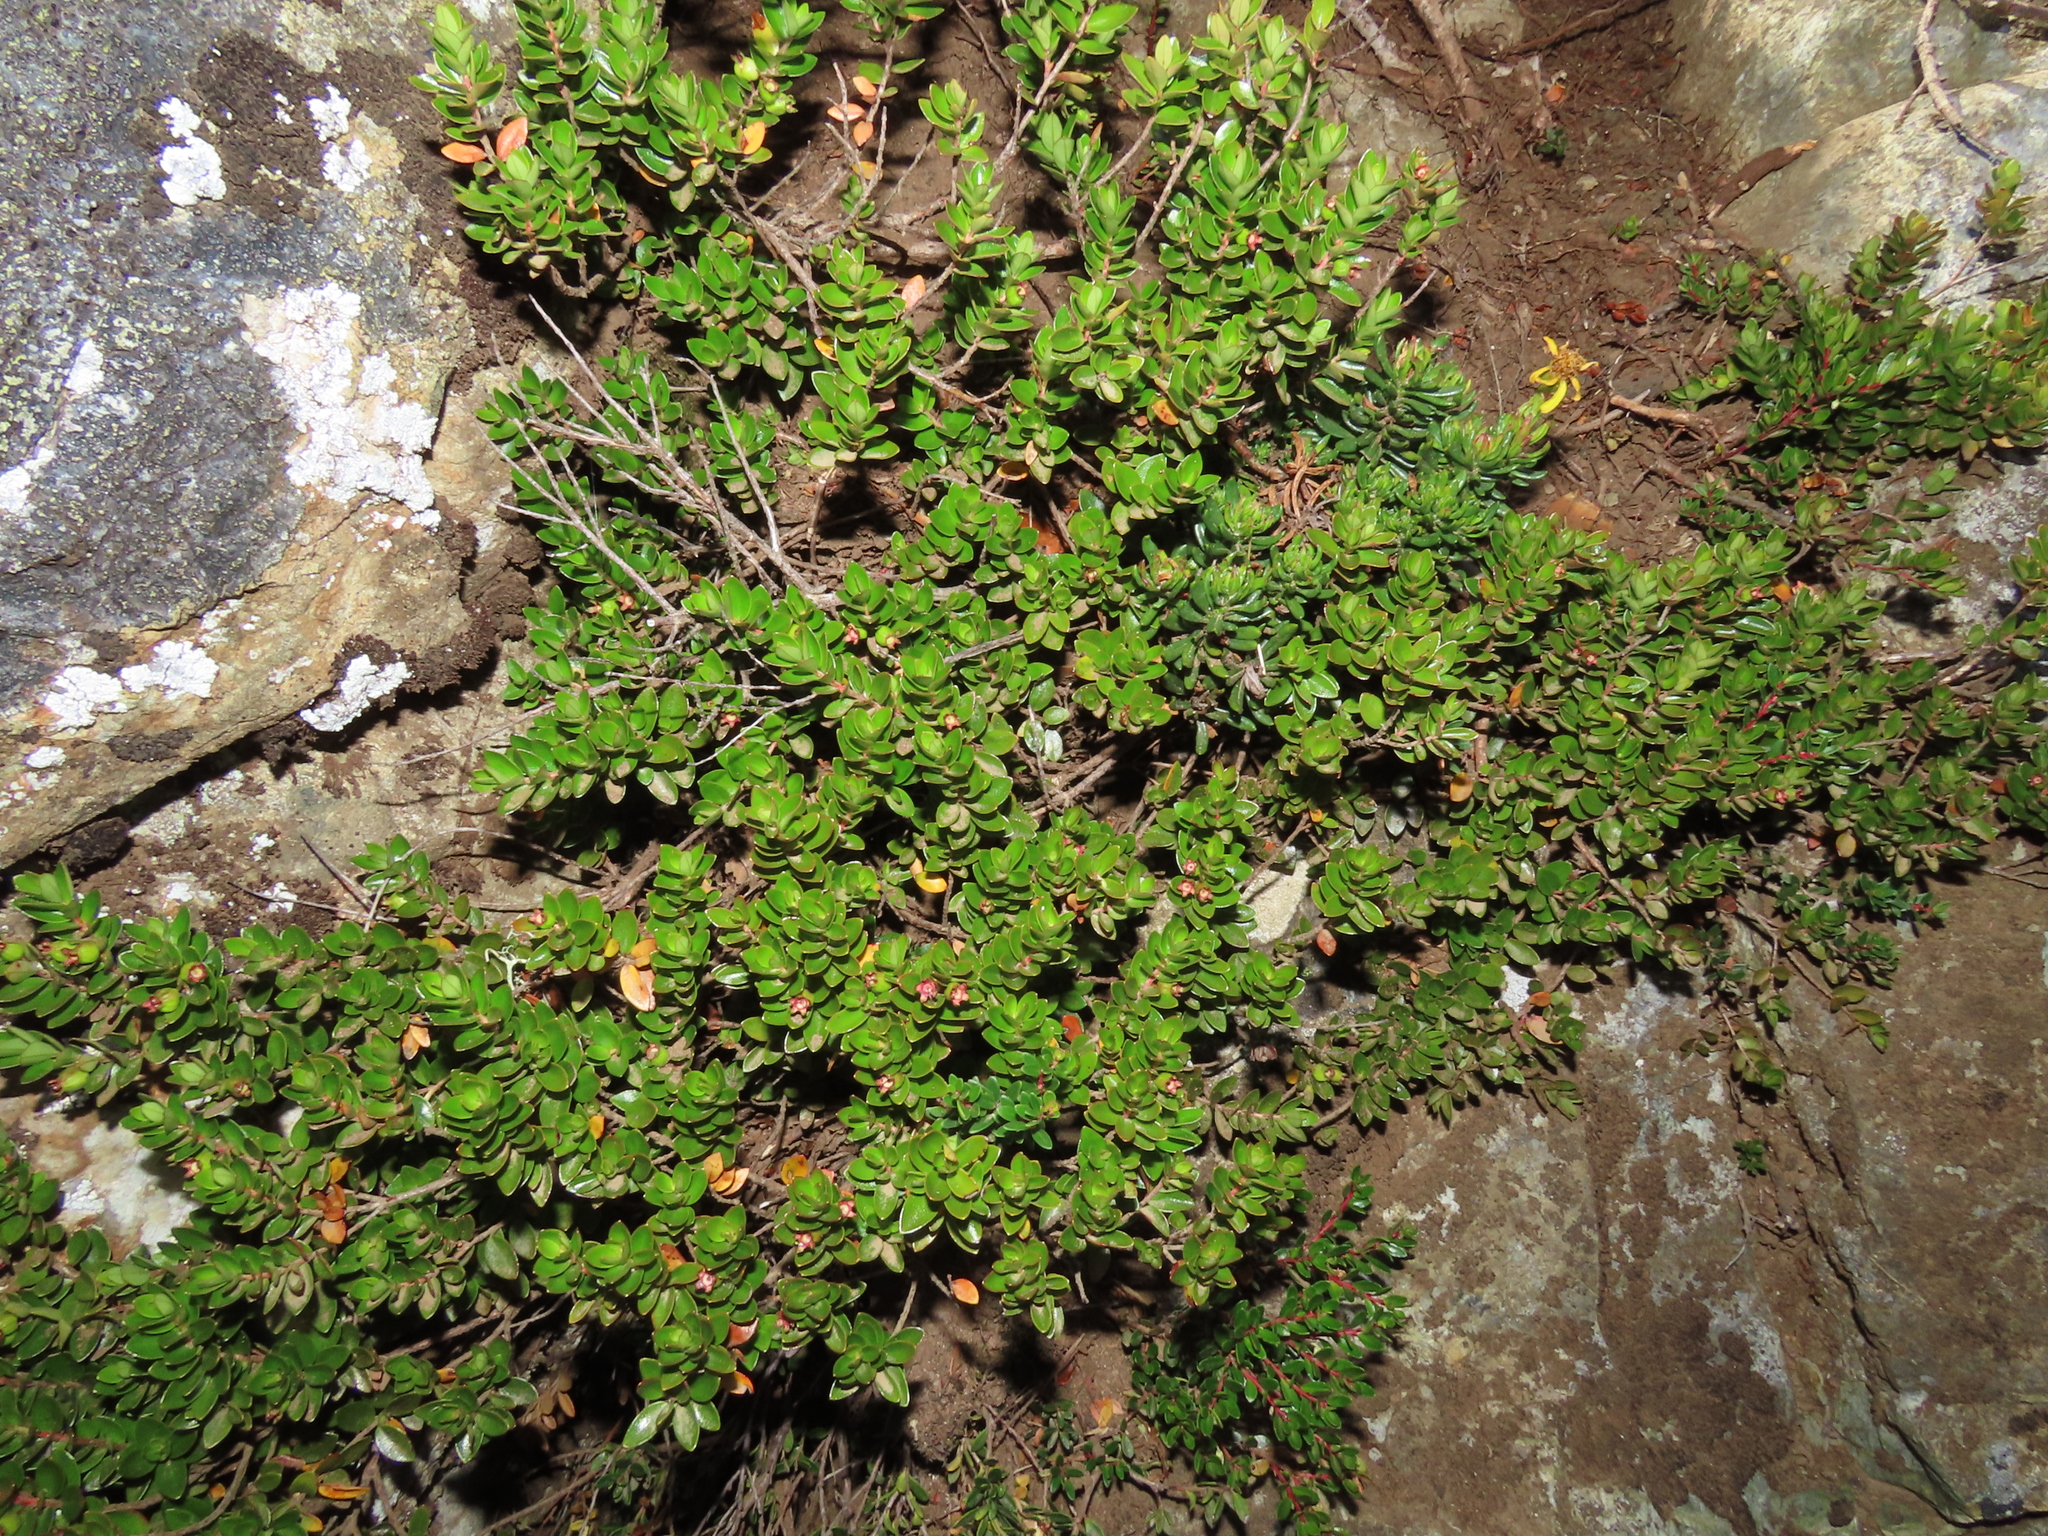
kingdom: Plantae
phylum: Tracheophyta
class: Magnoliopsida
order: Myrtales
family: Myrtaceae
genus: Myrteola
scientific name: Myrteola nummularia
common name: Cranberry-myrtle
